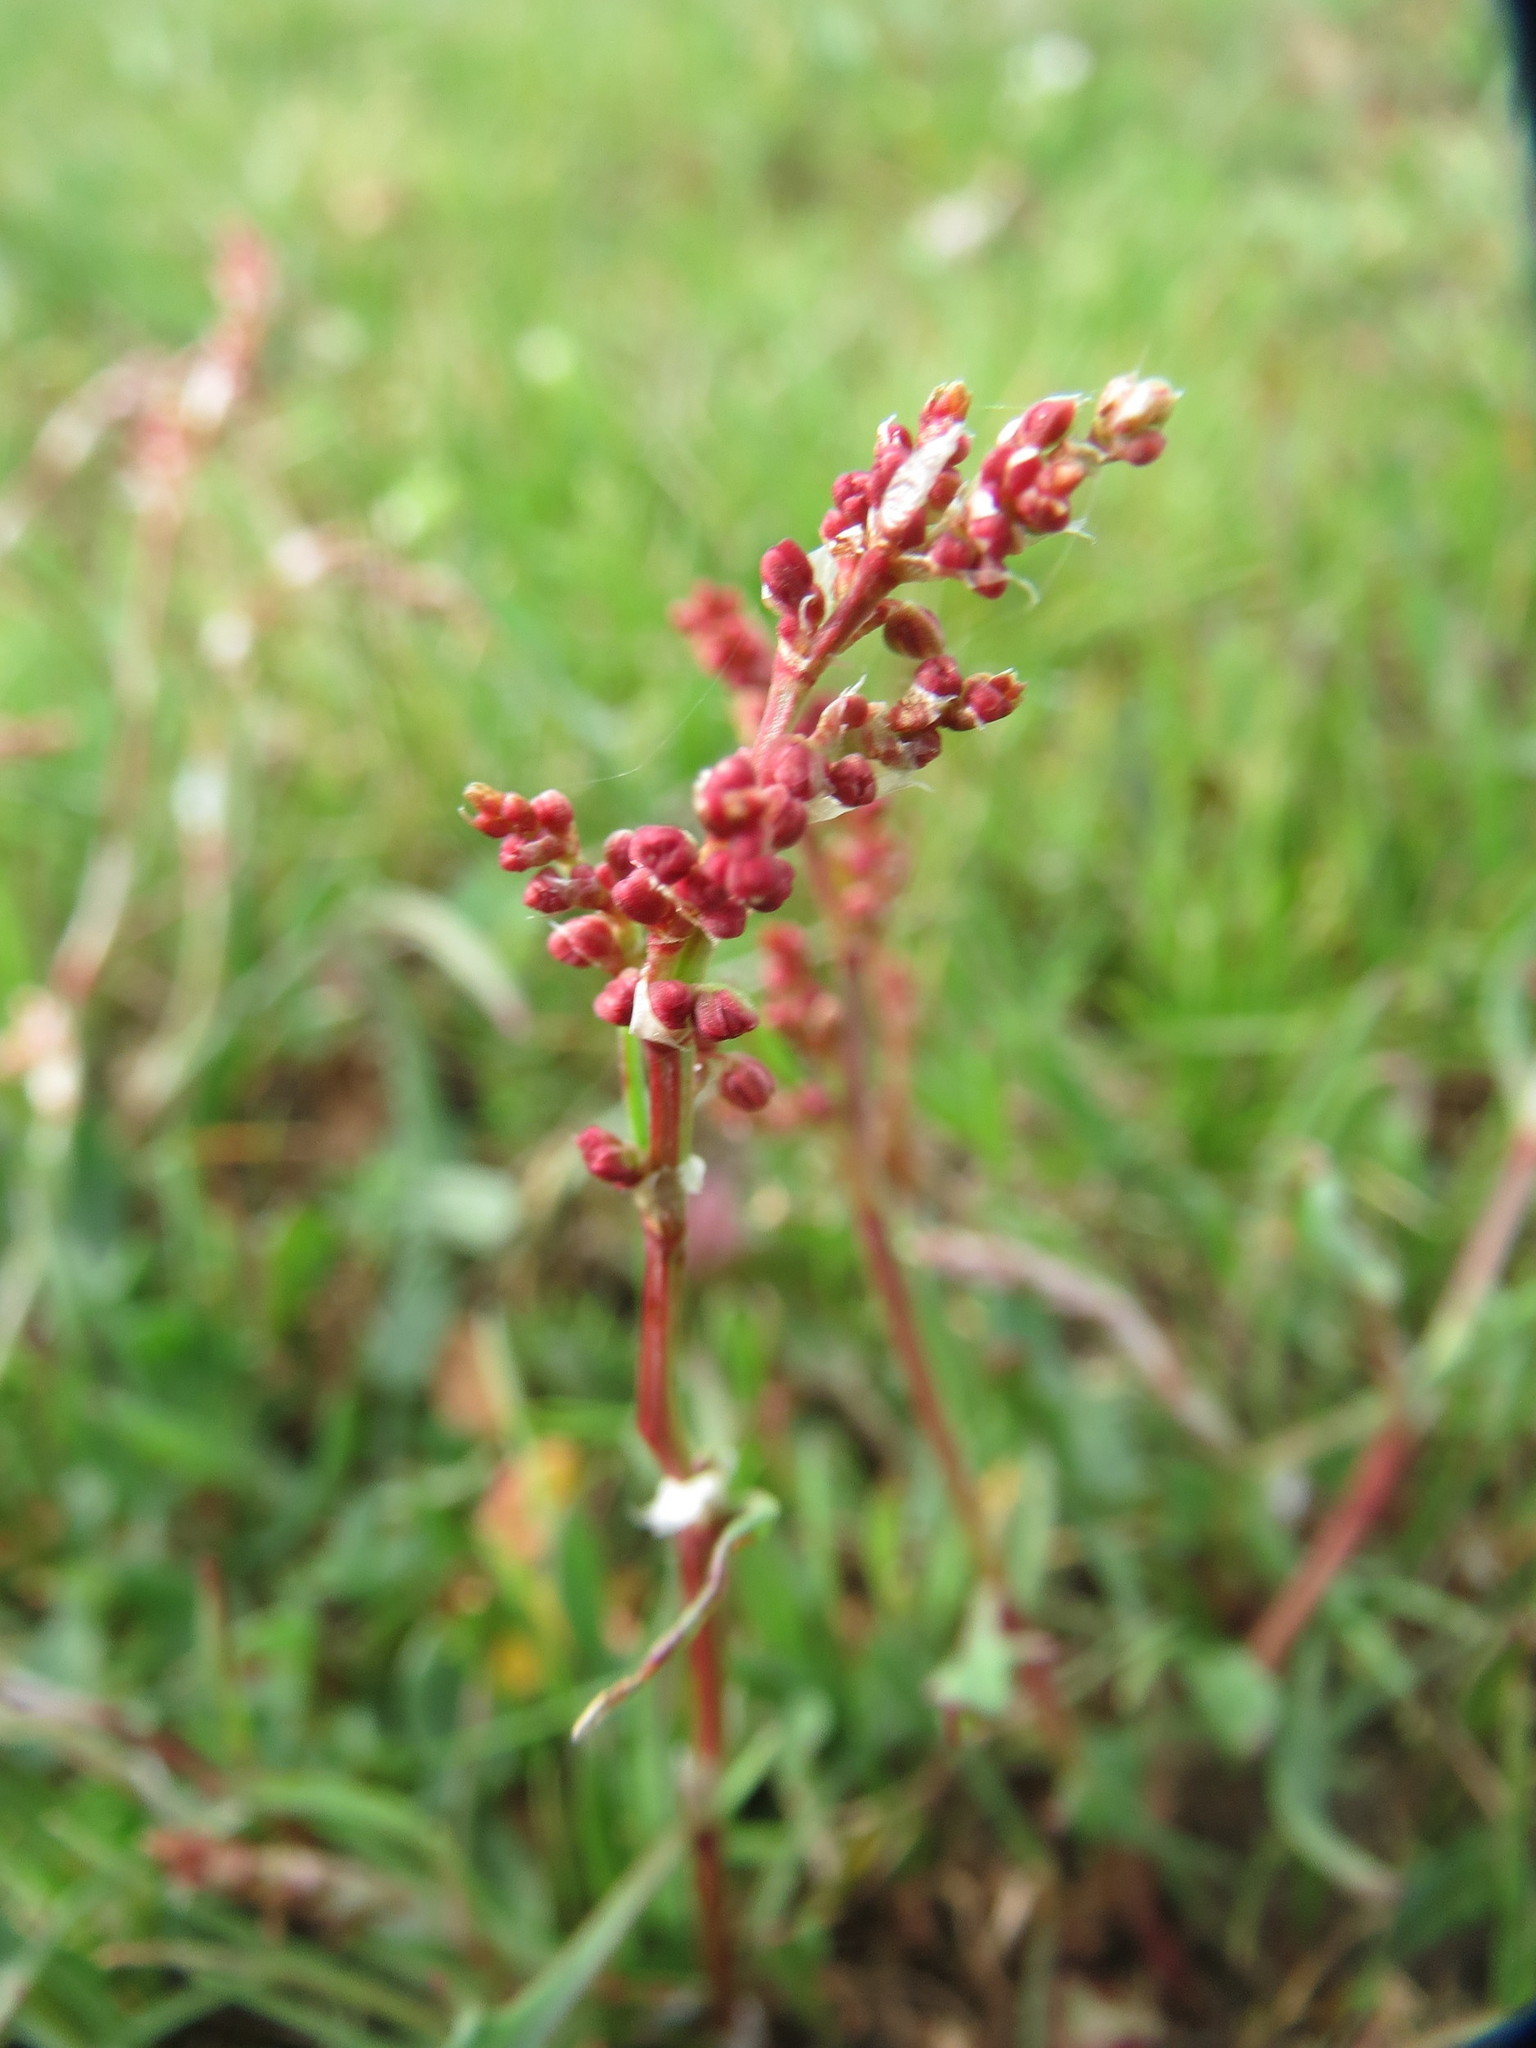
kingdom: Plantae
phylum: Tracheophyta
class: Magnoliopsida
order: Caryophyllales
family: Polygonaceae
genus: Rumex
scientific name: Rumex acetosella
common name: Common sheep sorrel
